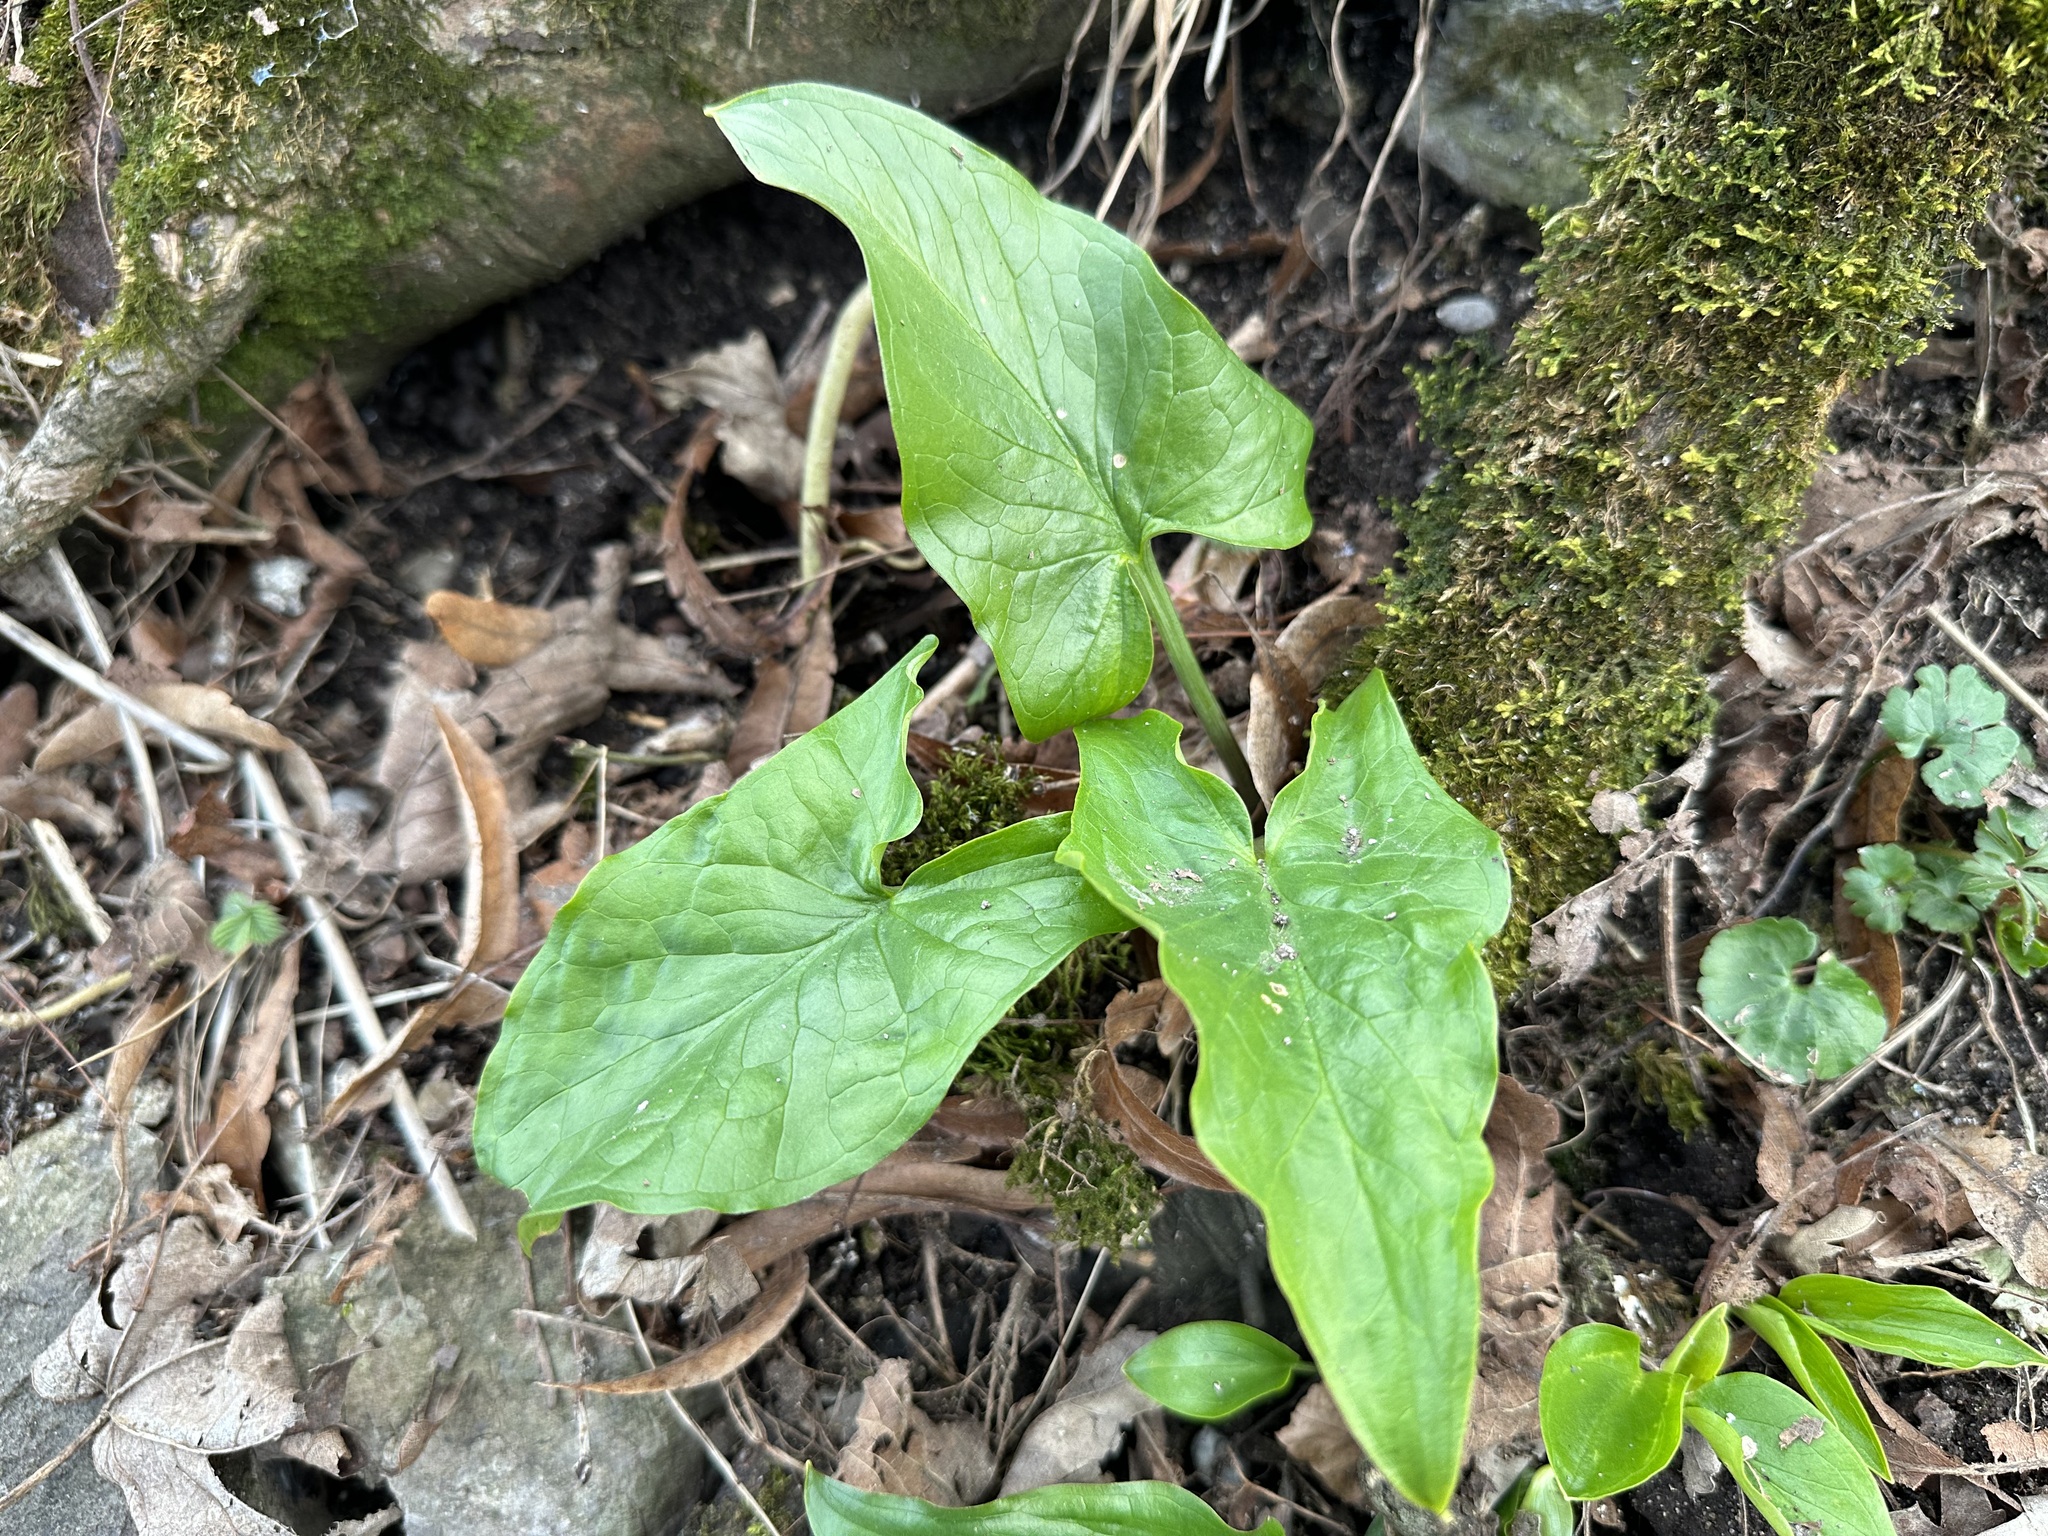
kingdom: Plantae
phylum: Tracheophyta
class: Liliopsida
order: Alismatales
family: Araceae
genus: Arum
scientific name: Arum maculatum
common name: Lords-and-ladies
